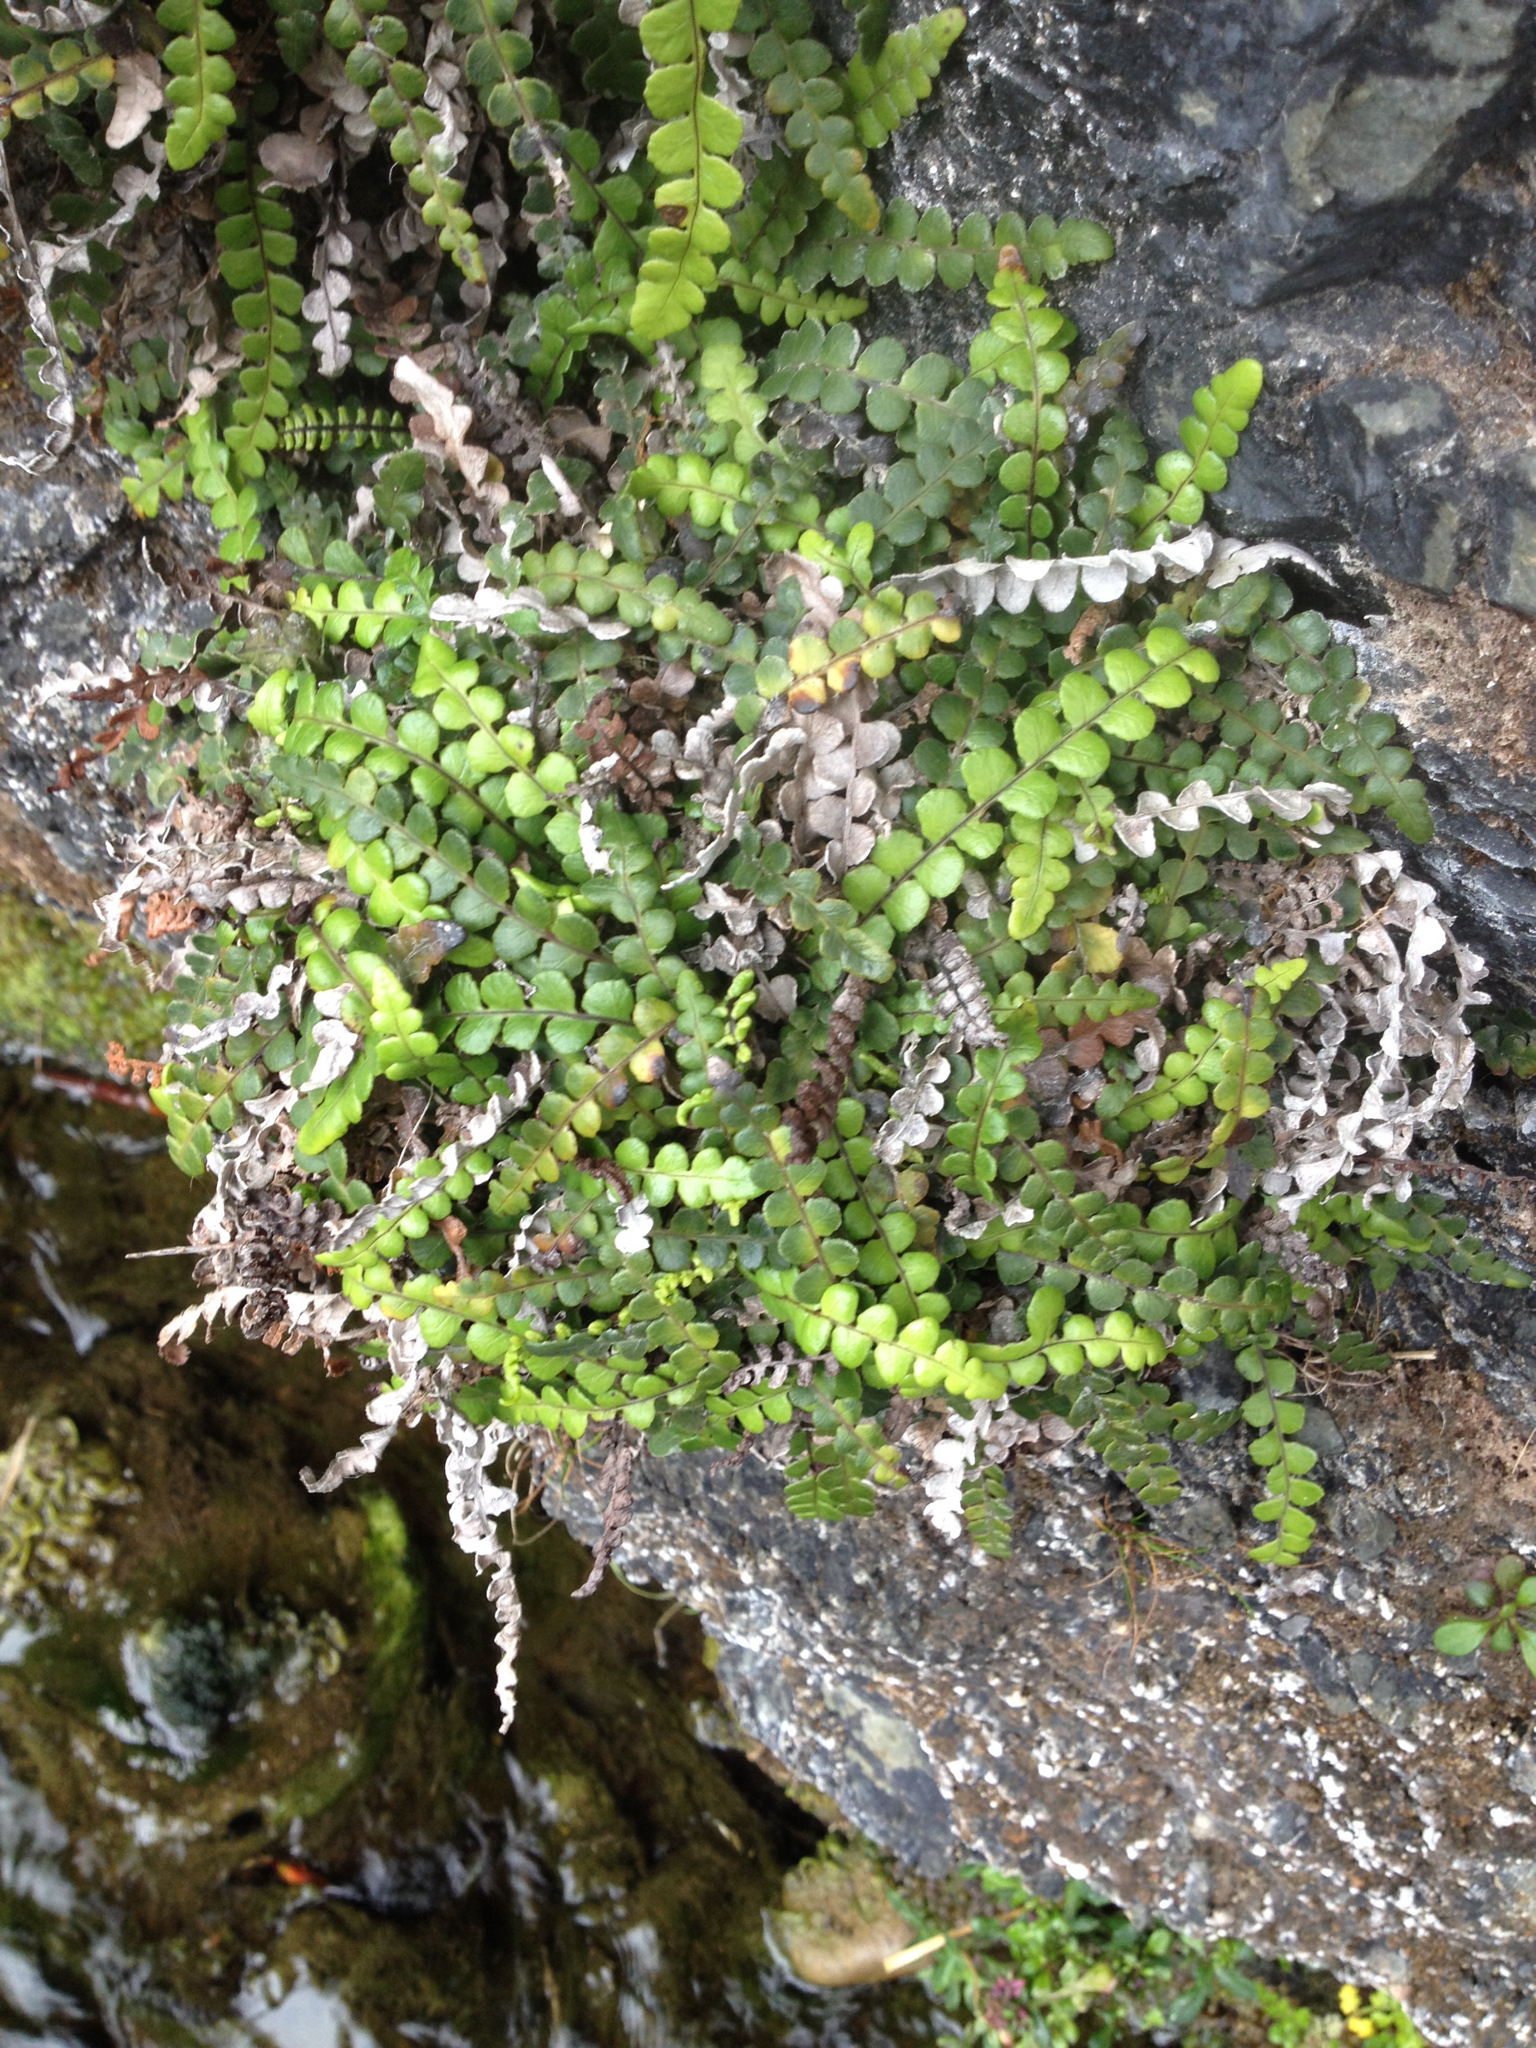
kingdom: Plantae
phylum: Tracheophyta
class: Polypodiopsida
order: Polypodiales
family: Blechnaceae
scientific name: Blechnaceae
